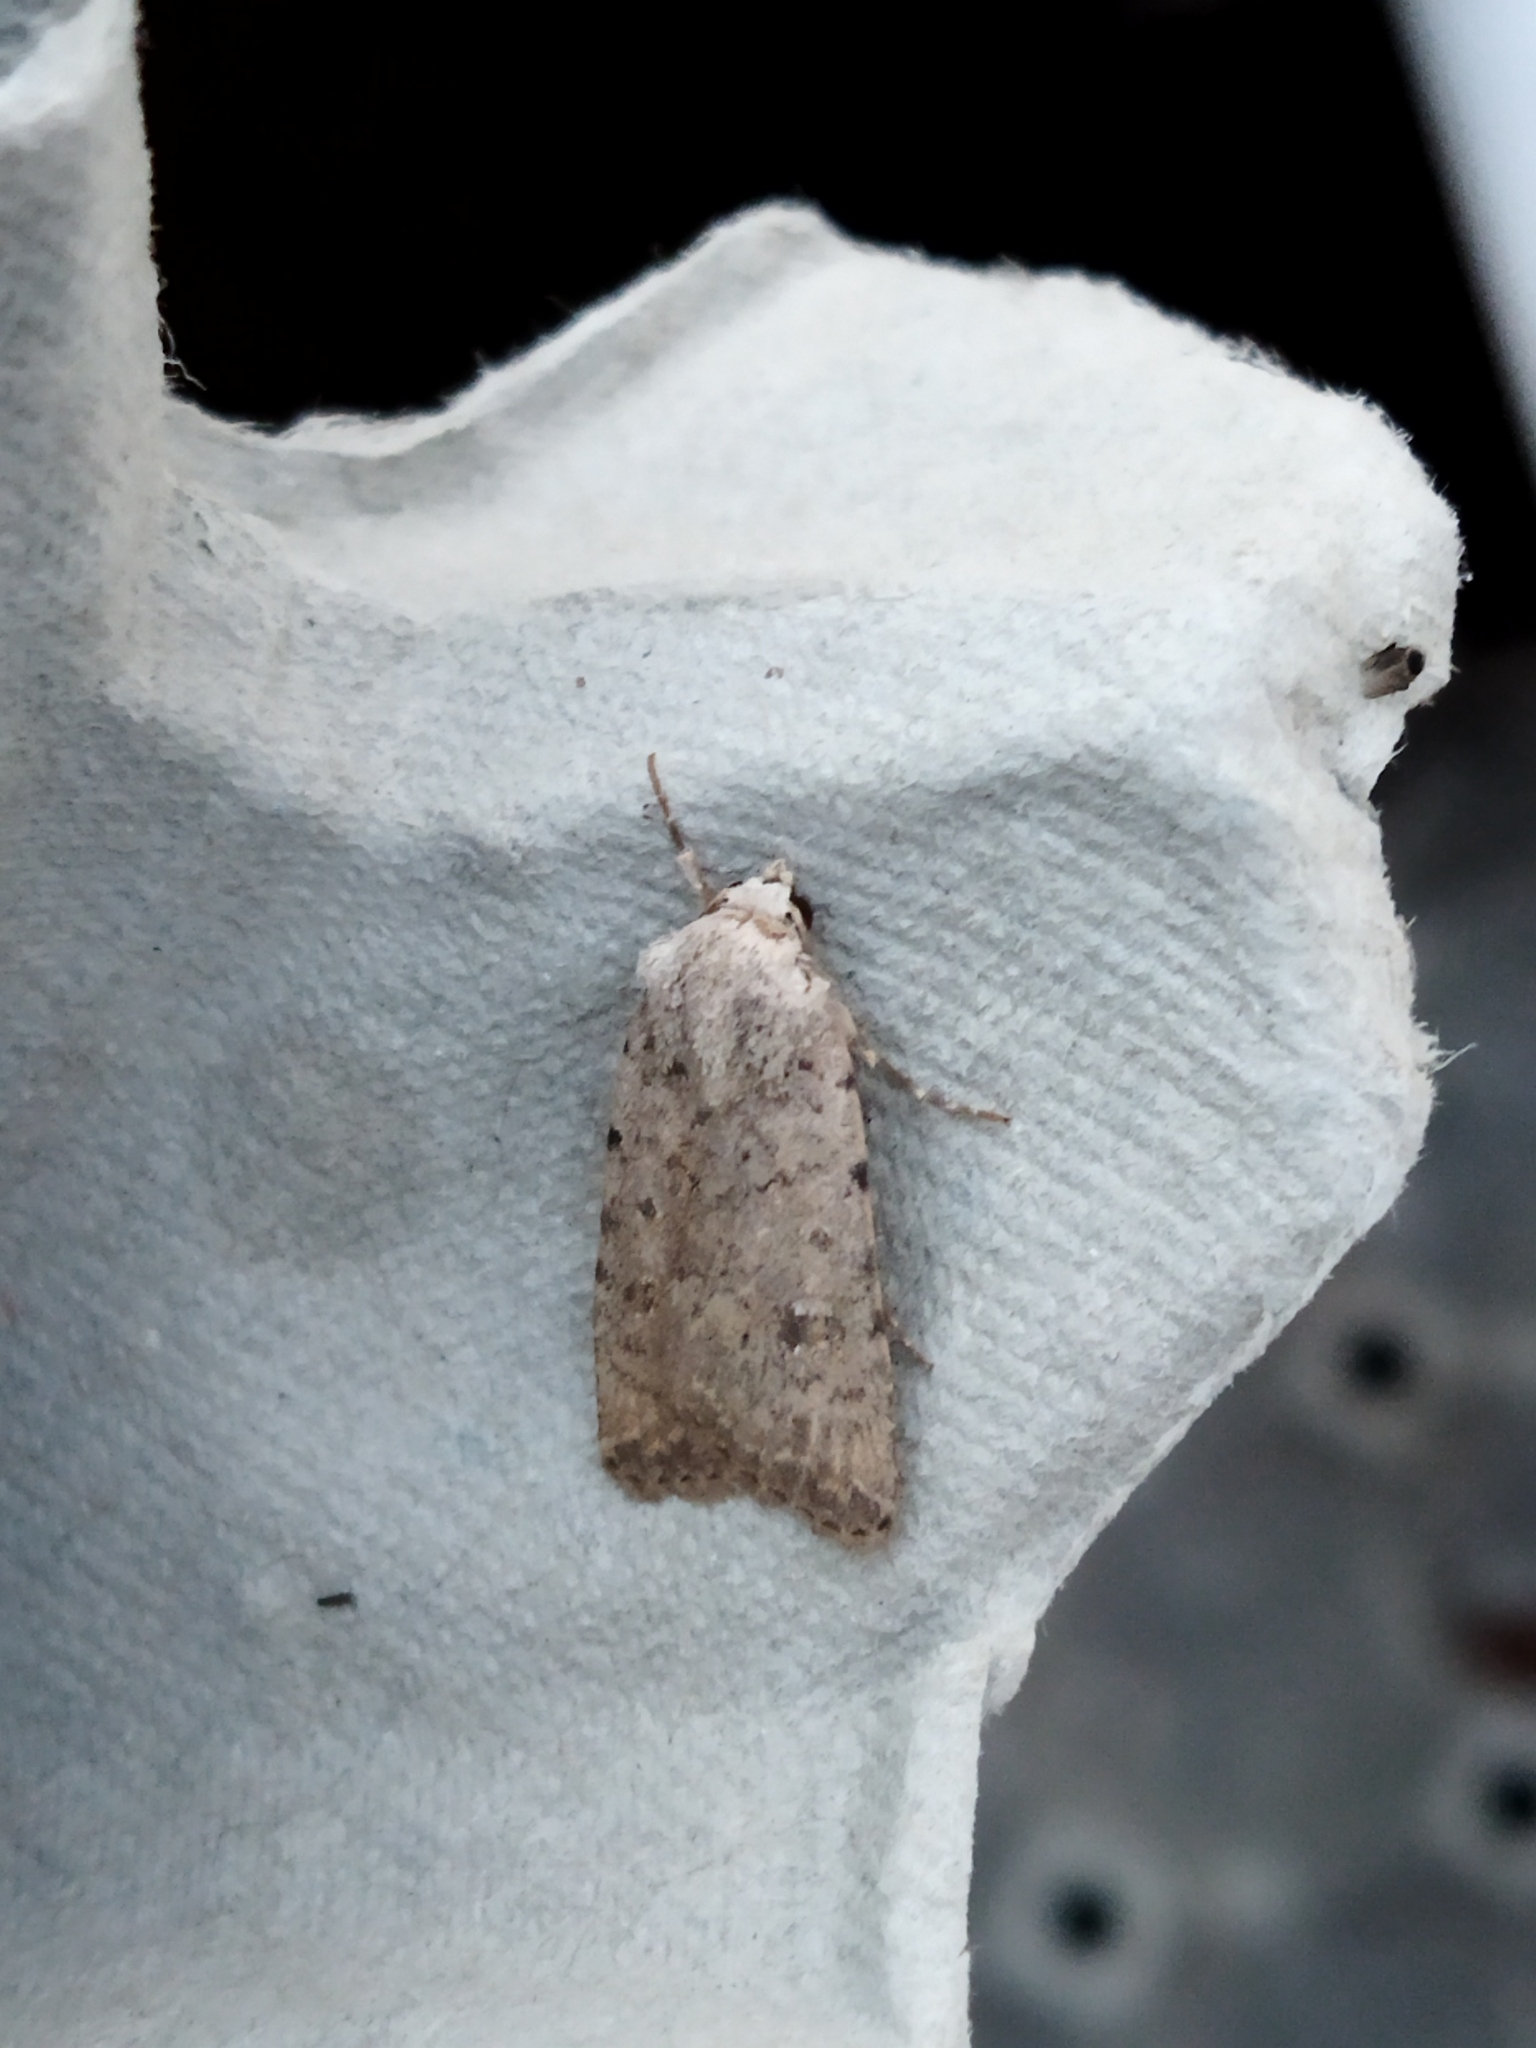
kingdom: Animalia
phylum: Arthropoda
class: Insecta
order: Lepidoptera
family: Noctuidae
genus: Caradrina
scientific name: Caradrina clavipalpis
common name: Pale mottled willow
